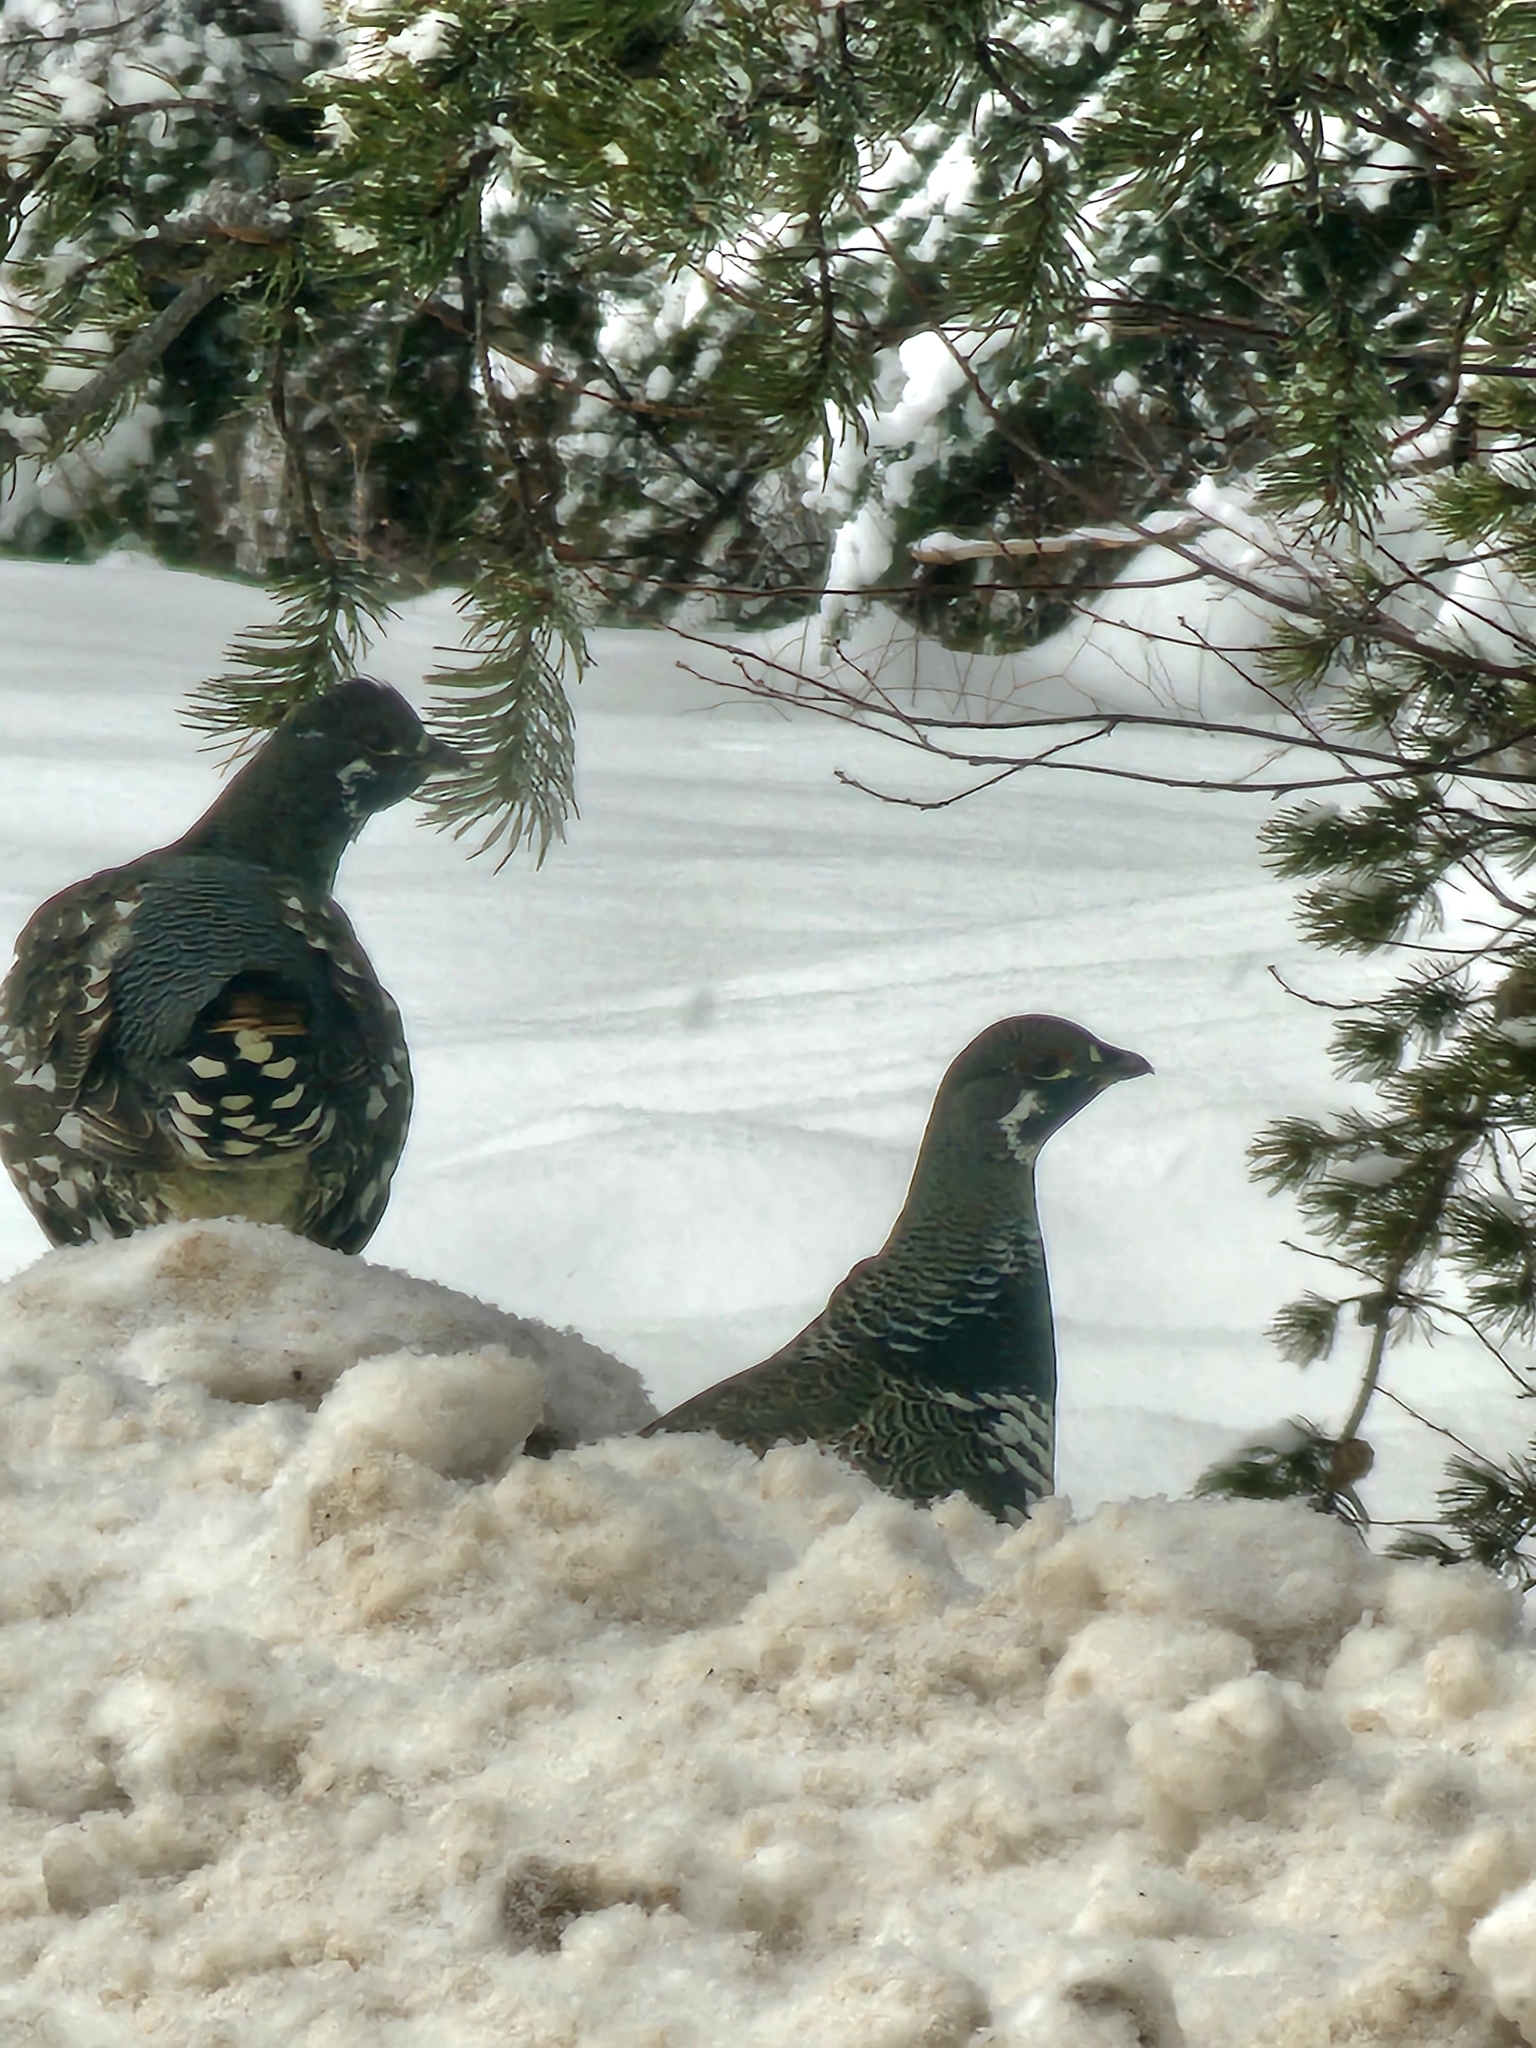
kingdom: Animalia
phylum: Chordata
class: Aves
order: Galliformes
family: Phasianidae
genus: Canachites
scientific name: Canachites canadensis
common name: Spruce grouse
